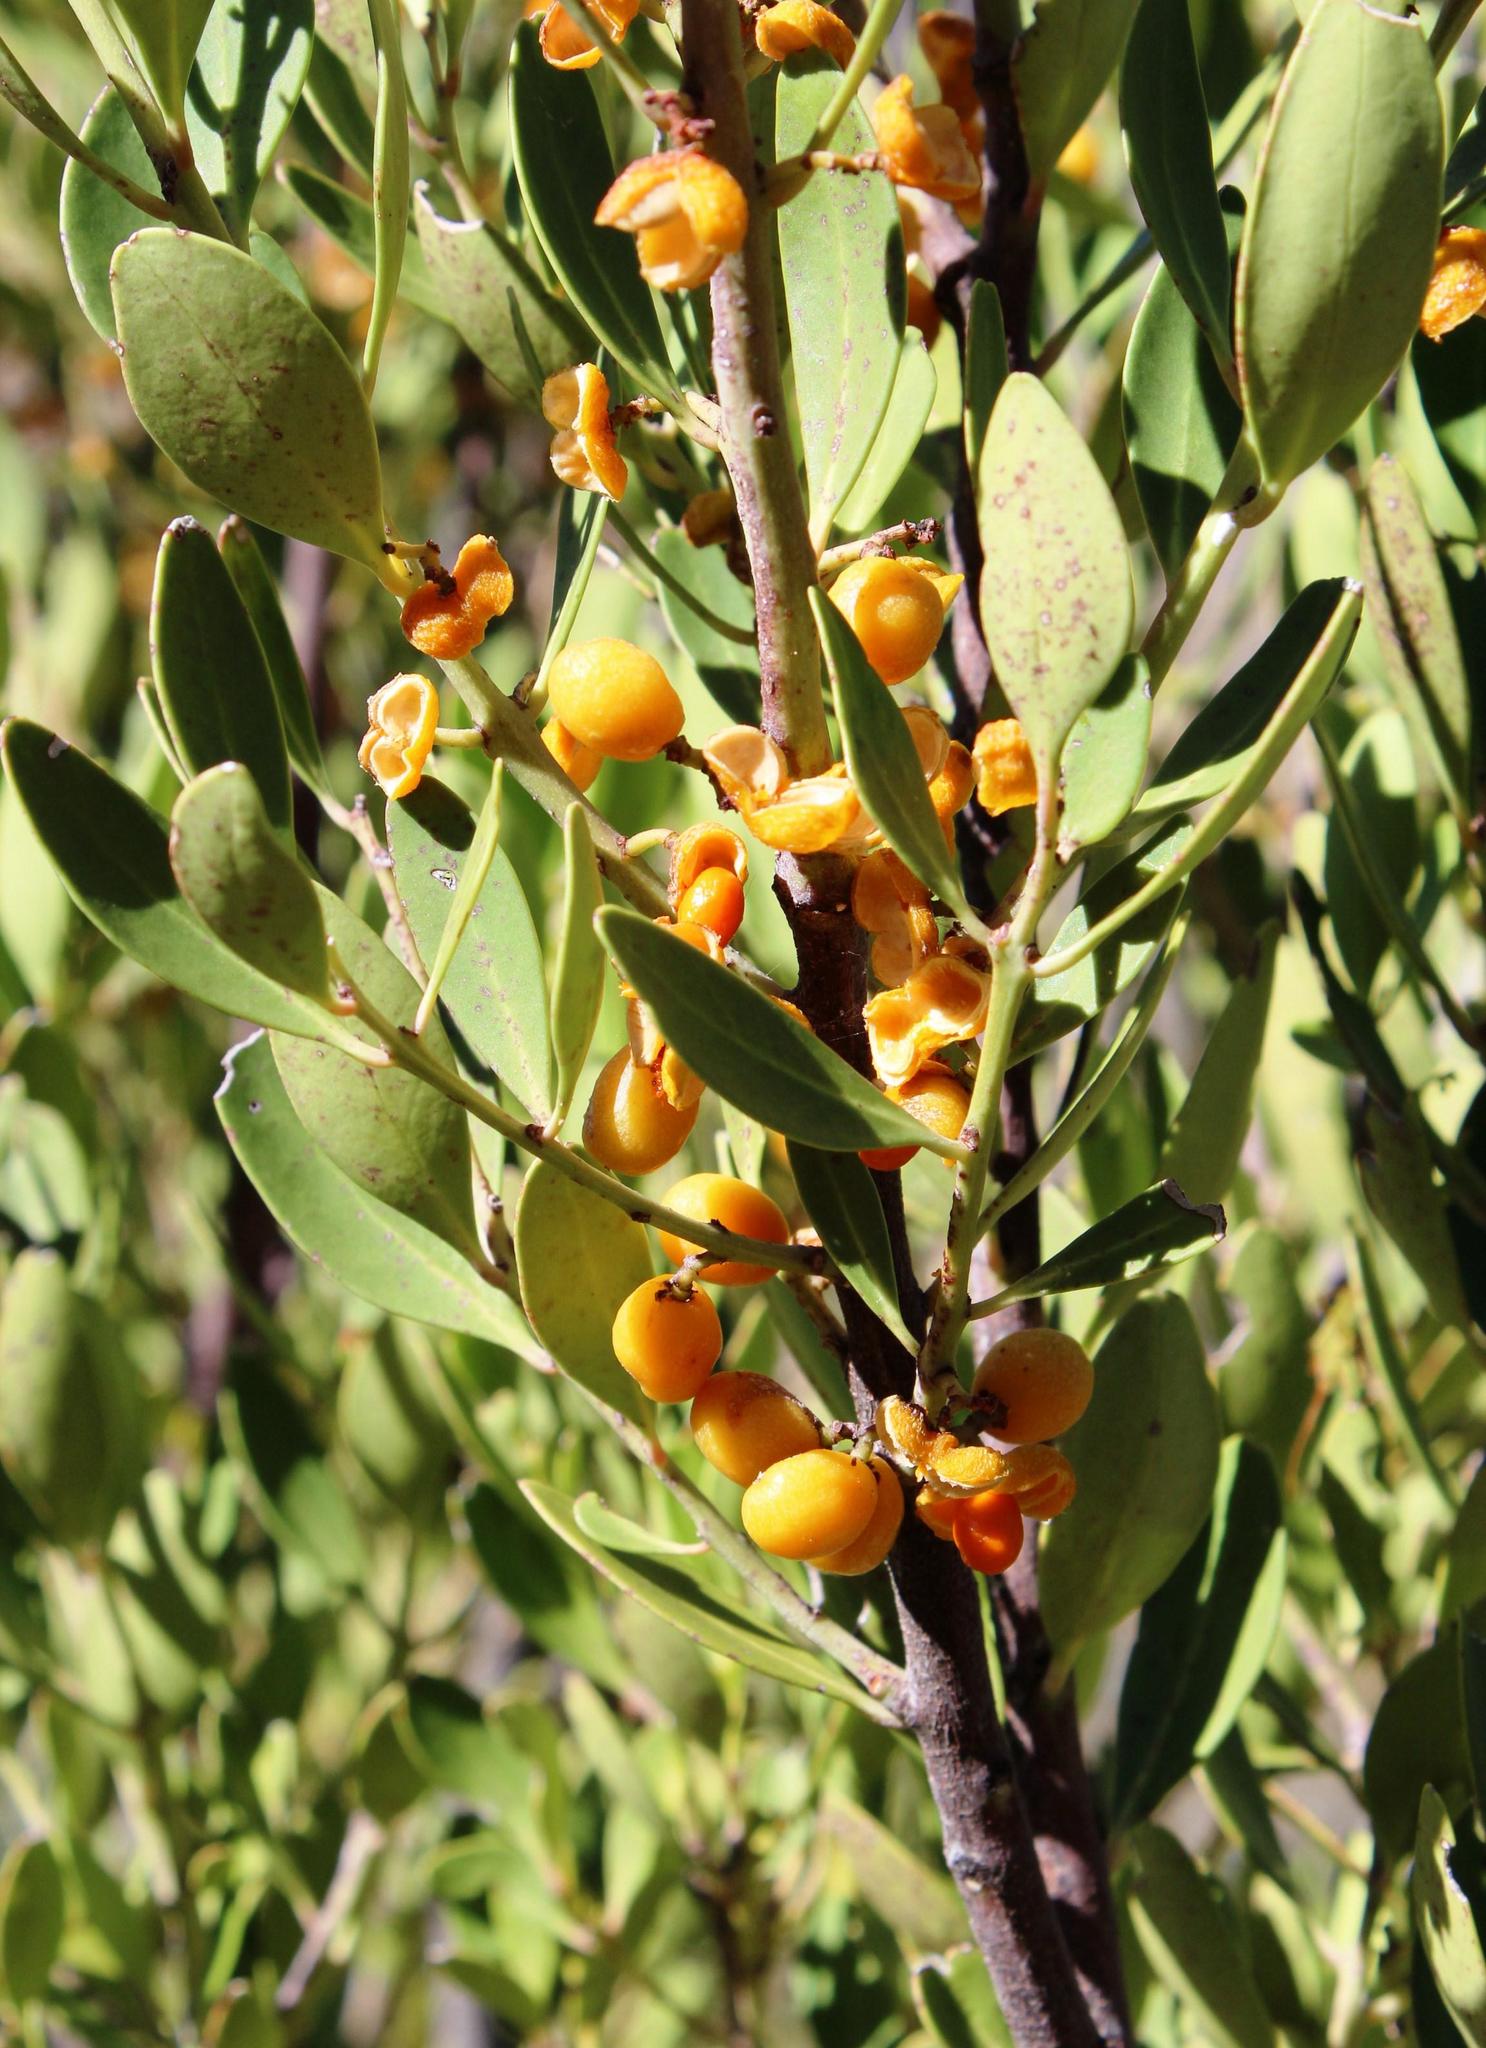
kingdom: Plantae
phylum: Tracheophyta
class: Magnoliopsida
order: Celastrales
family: Celastraceae
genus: Gymnosporia
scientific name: Gymnosporia laurina
